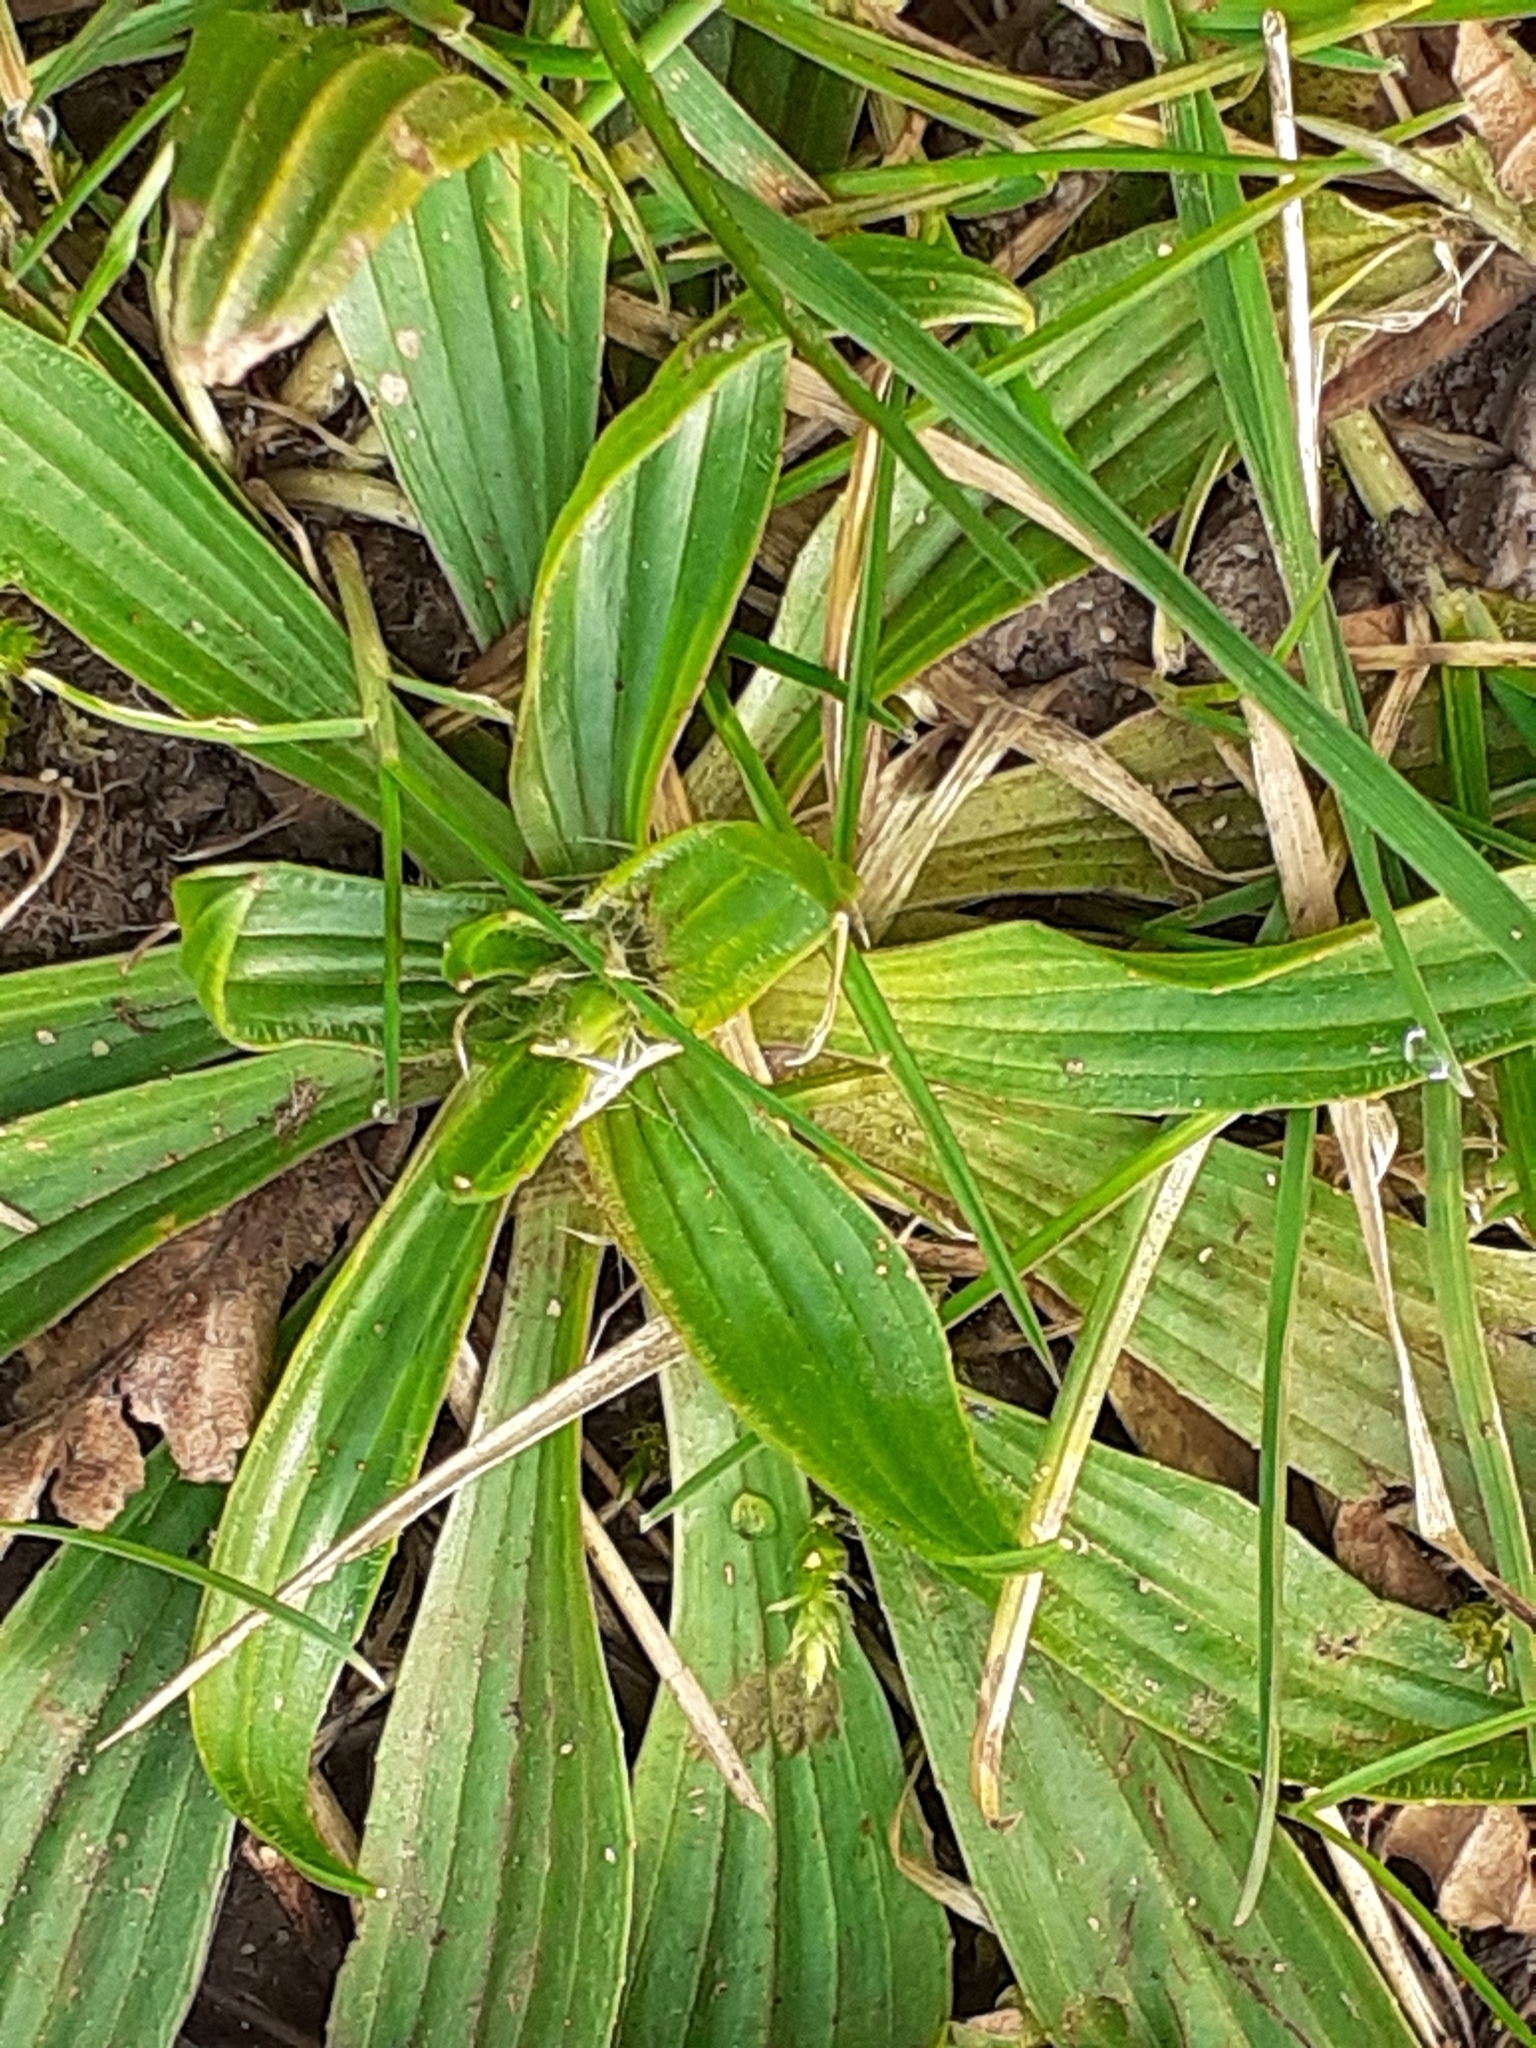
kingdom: Plantae
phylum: Tracheophyta
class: Magnoliopsida
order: Lamiales
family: Plantaginaceae
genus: Plantago
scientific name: Plantago lanceolata
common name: Ribwort plantain
